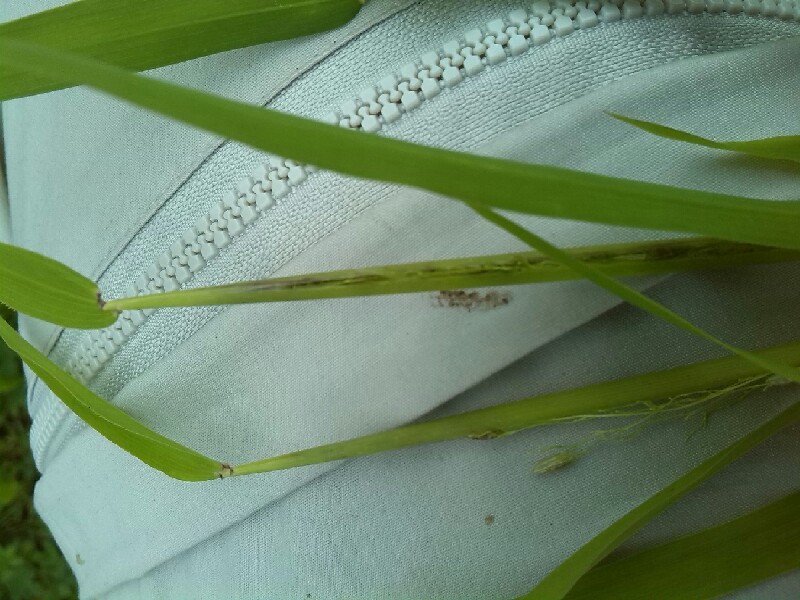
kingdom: Plantae
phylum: Tracheophyta
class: Liliopsida
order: Poales
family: Poaceae
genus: Leersia
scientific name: Leersia oryzoides
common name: Cut-grass
